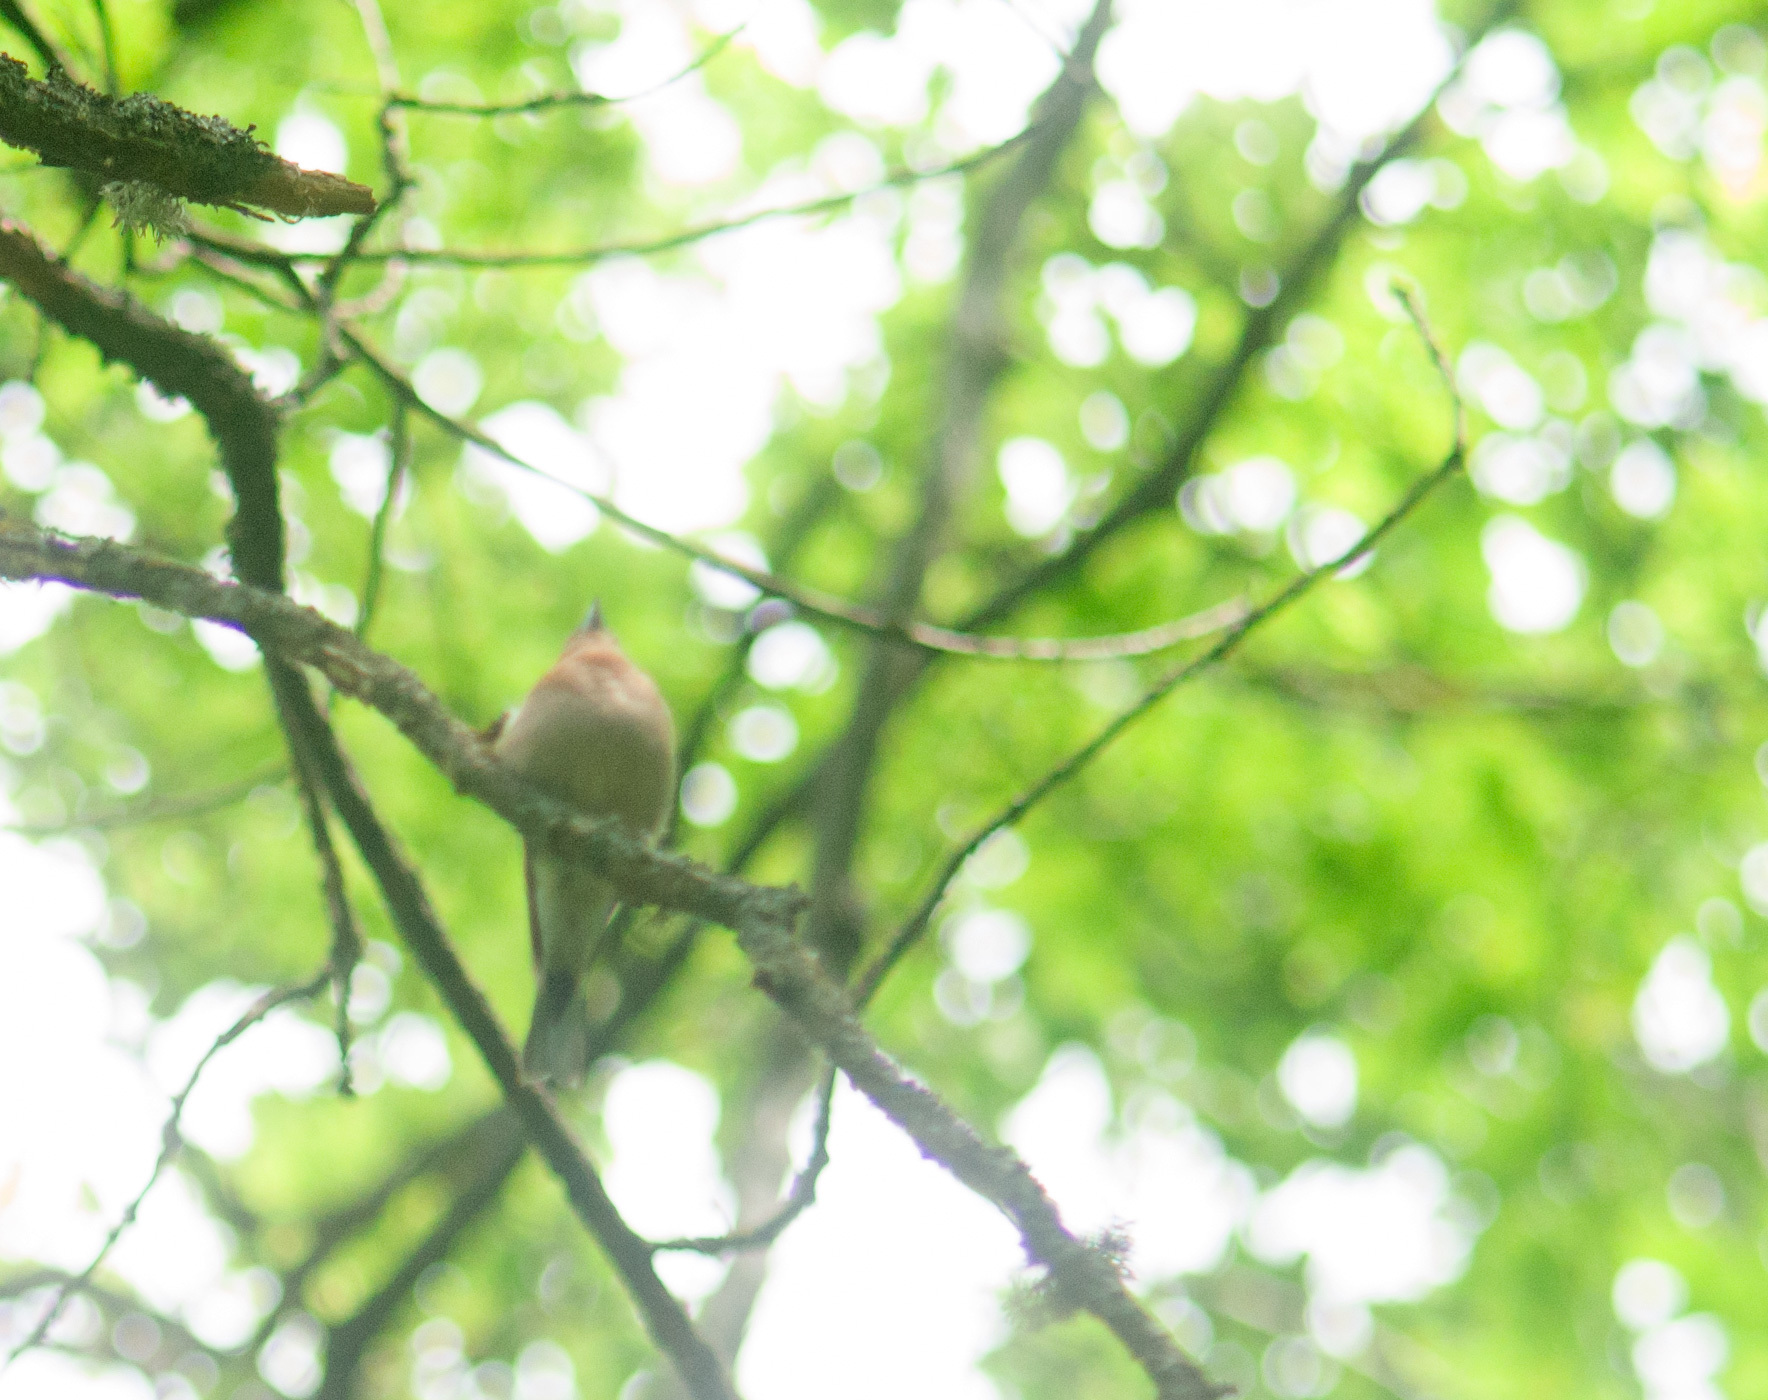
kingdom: Animalia
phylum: Chordata
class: Aves
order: Passeriformes
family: Fringillidae
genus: Fringilla
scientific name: Fringilla coelebs
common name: Common chaffinch
